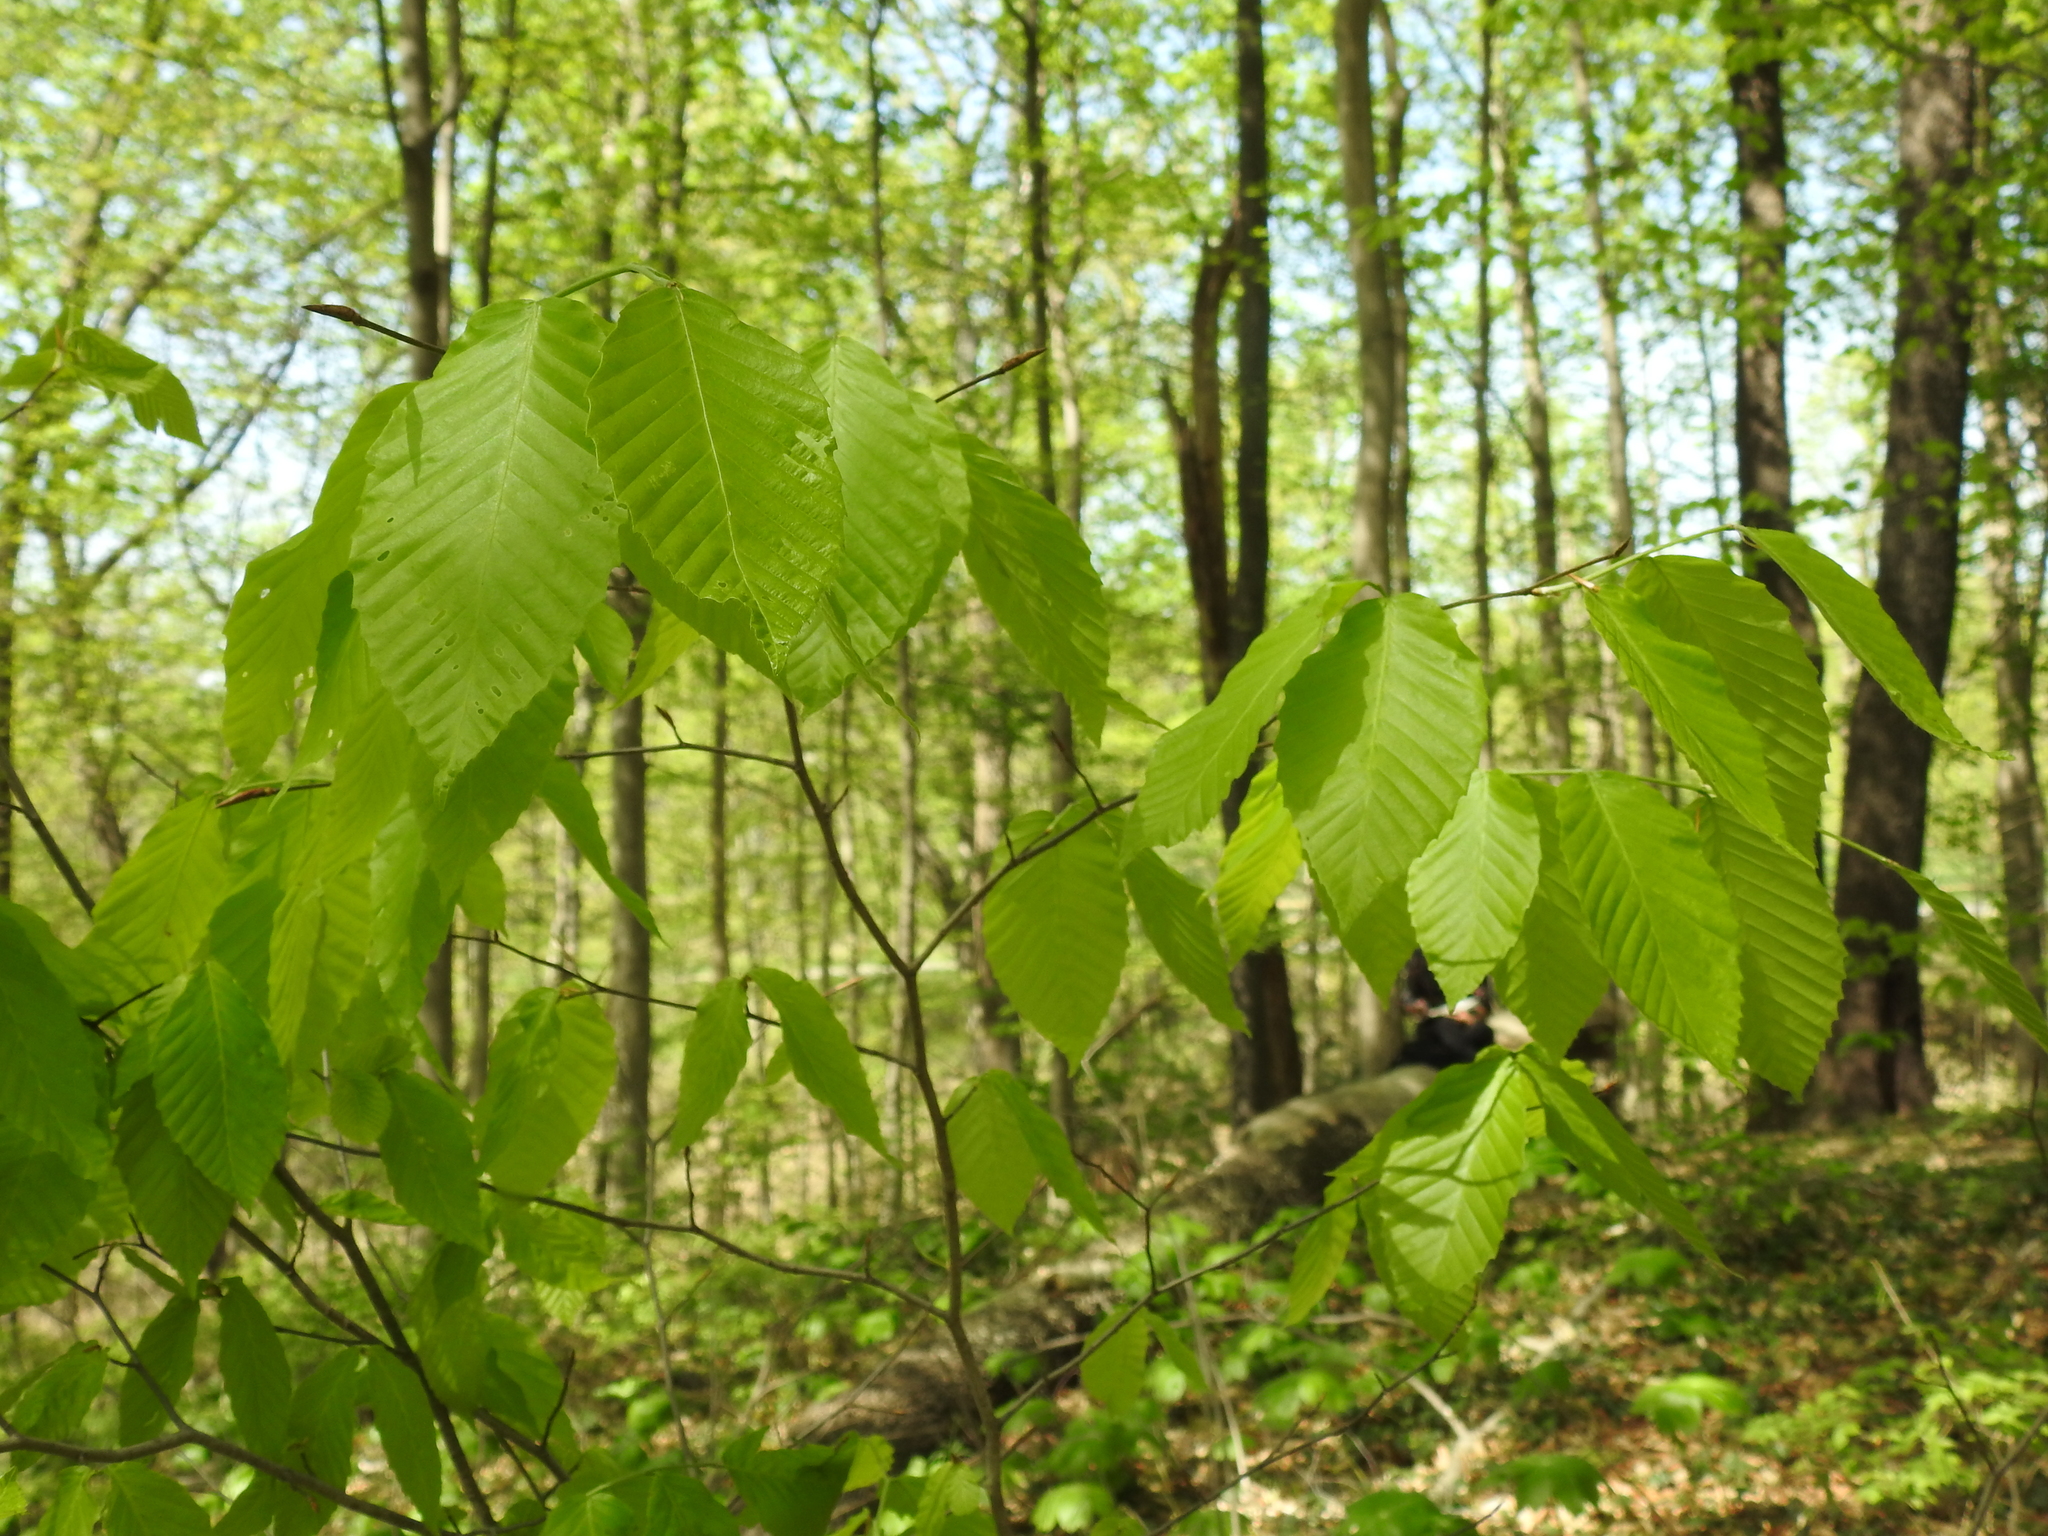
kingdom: Plantae
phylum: Tracheophyta
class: Magnoliopsida
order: Fagales
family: Fagaceae
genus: Fagus
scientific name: Fagus grandifolia
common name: American beech
